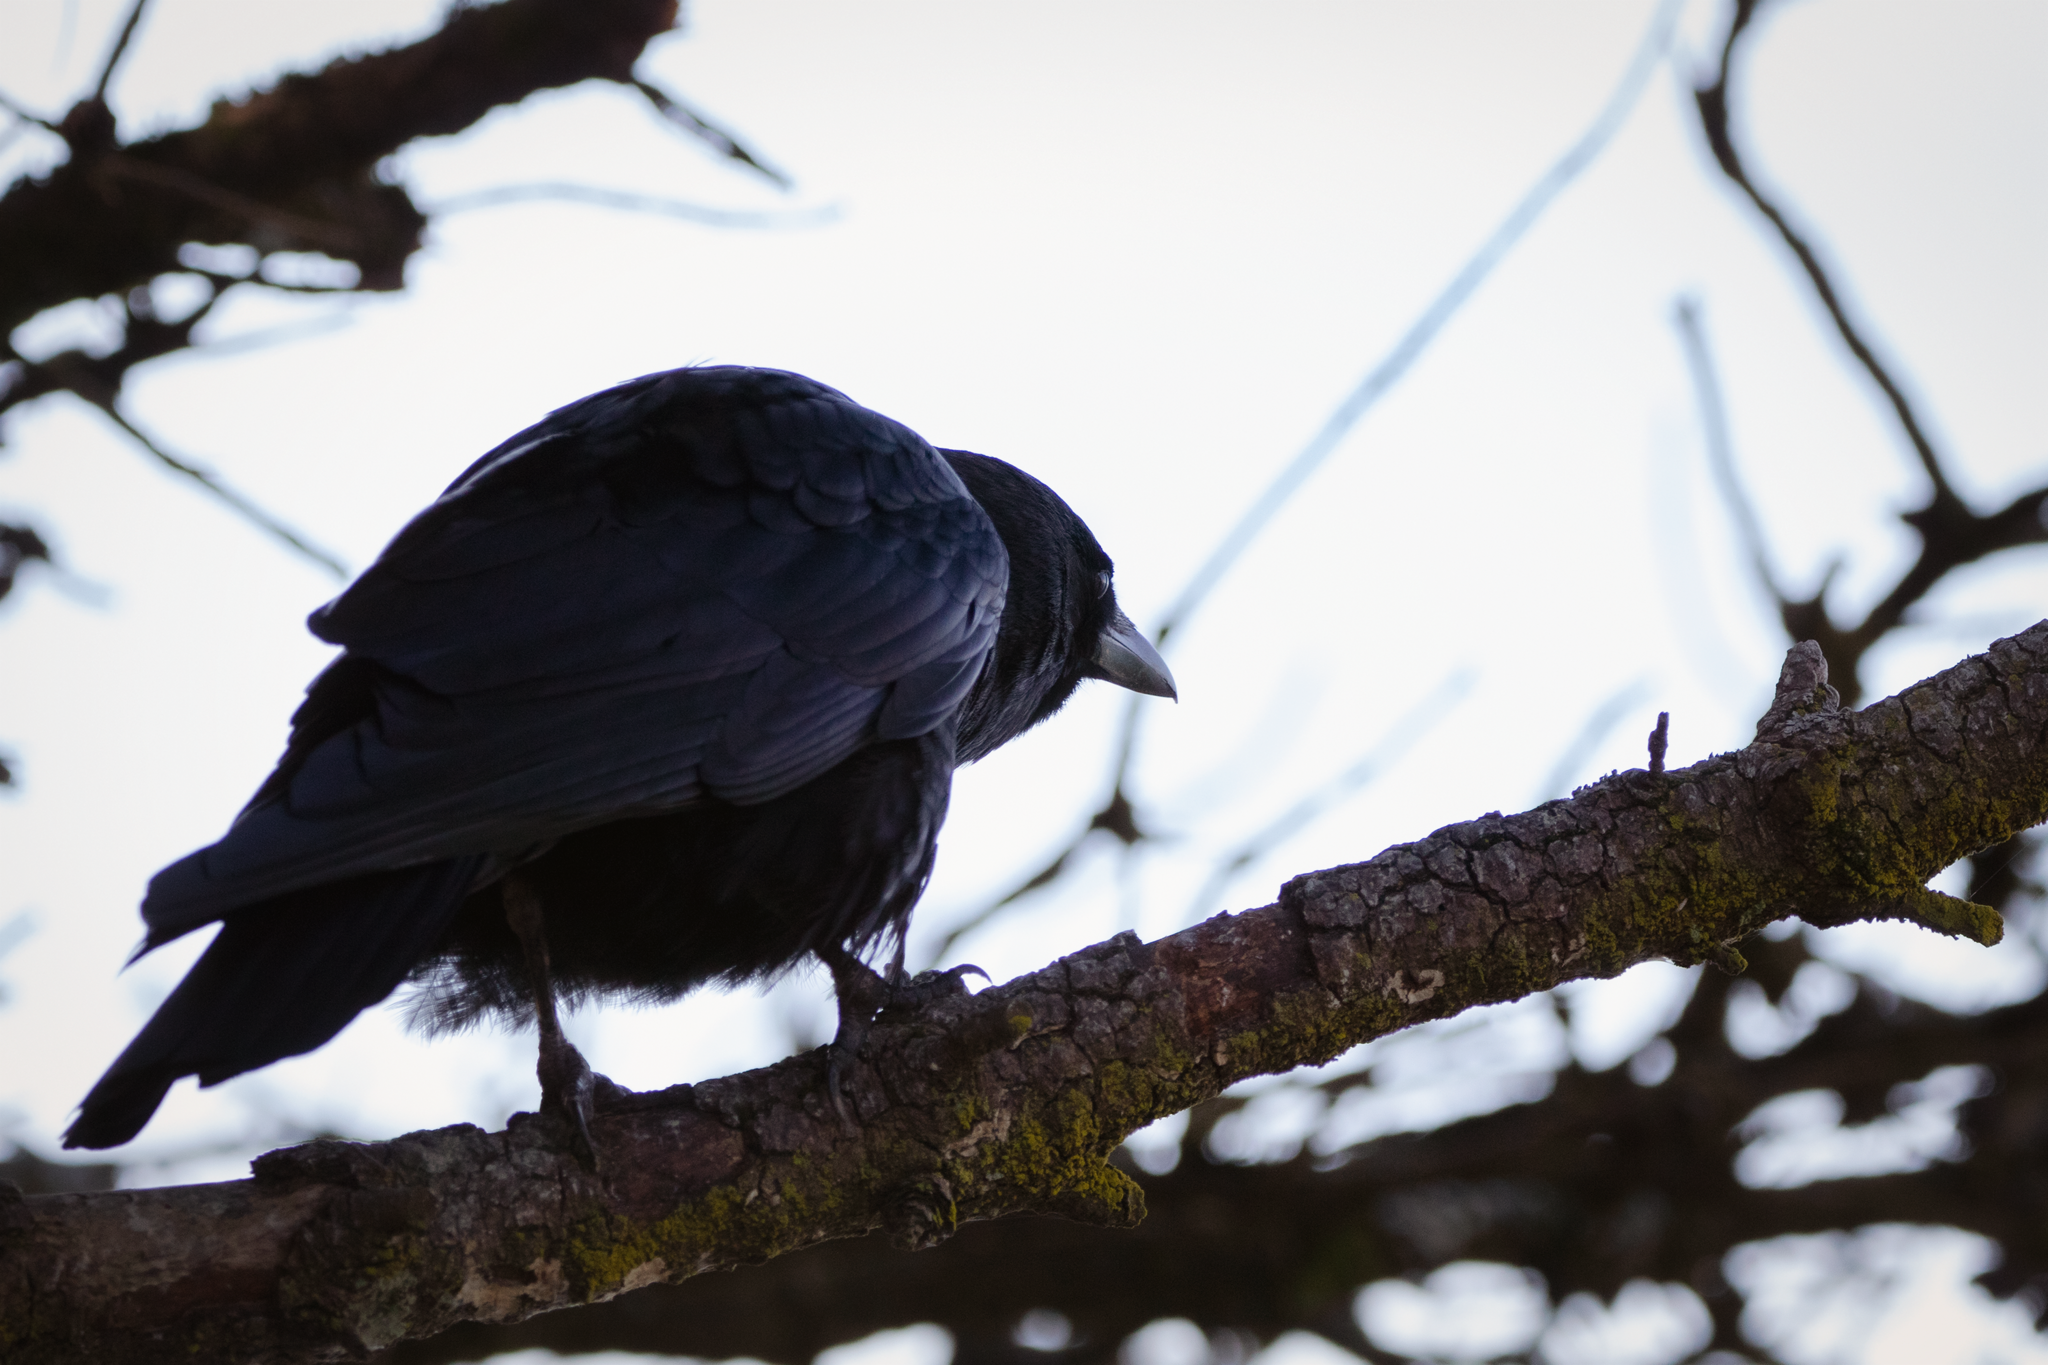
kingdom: Animalia
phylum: Chordata
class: Aves
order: Passeriformes
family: Corvidae
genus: Corvus
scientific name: Corvus brachyrhynchos
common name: American crow
